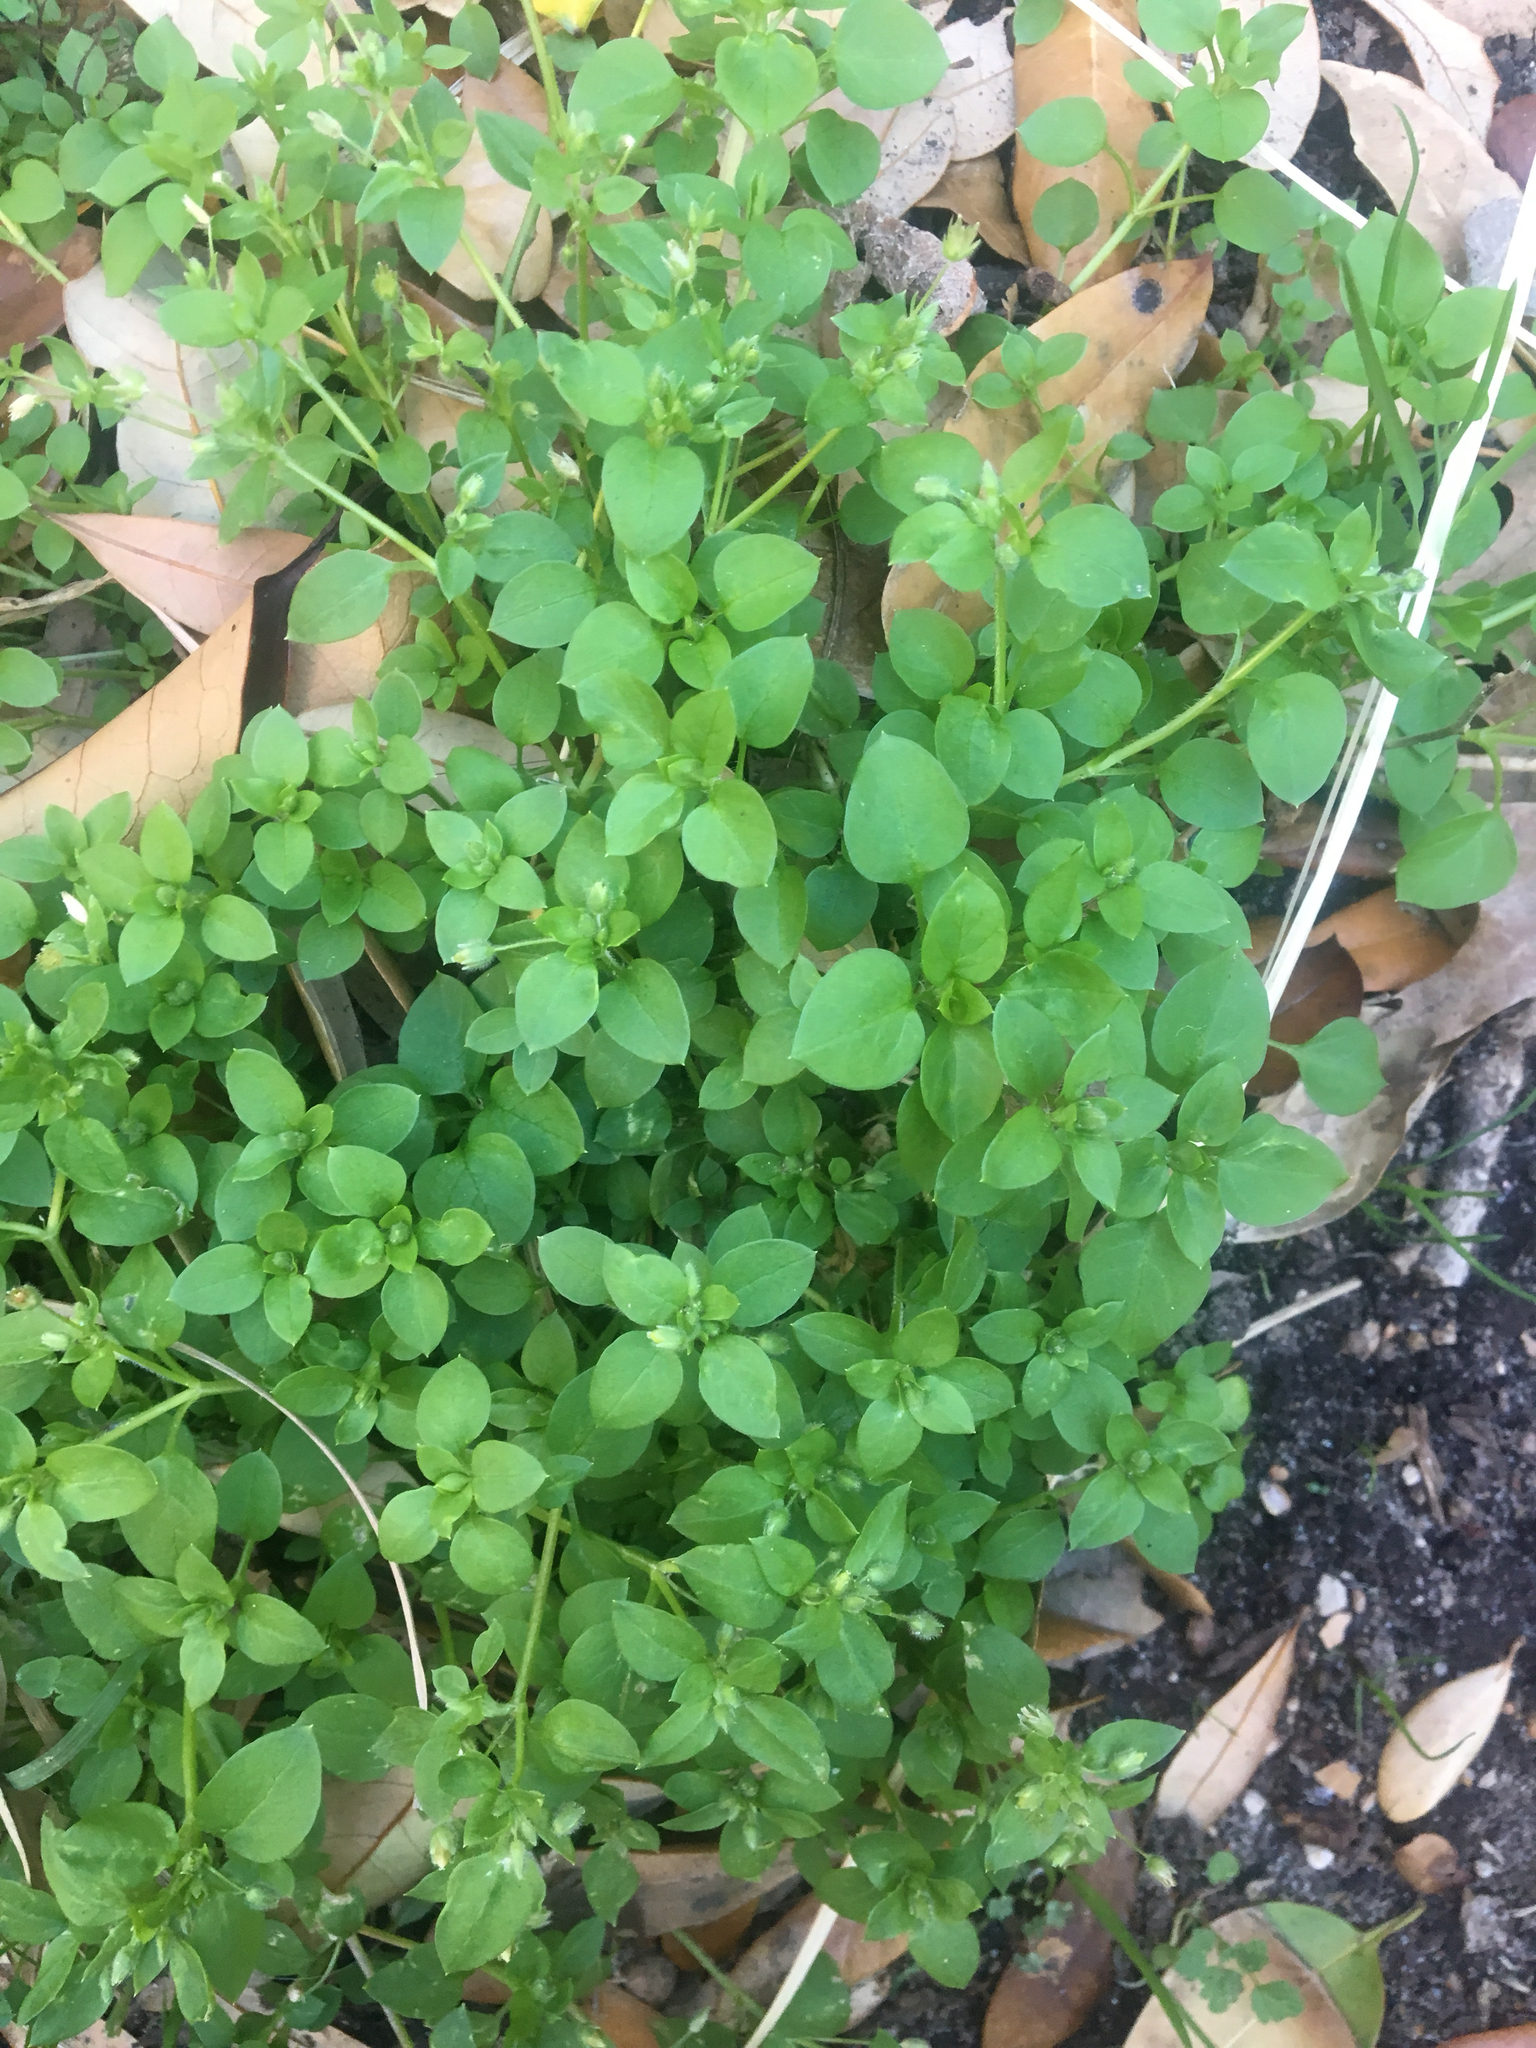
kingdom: Plantae
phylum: Tracheophyta
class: Magnoliopsida
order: Caryophyllales
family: Caryophyllaceae
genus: Stellaria
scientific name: Stellaria media
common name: Common chickweed
